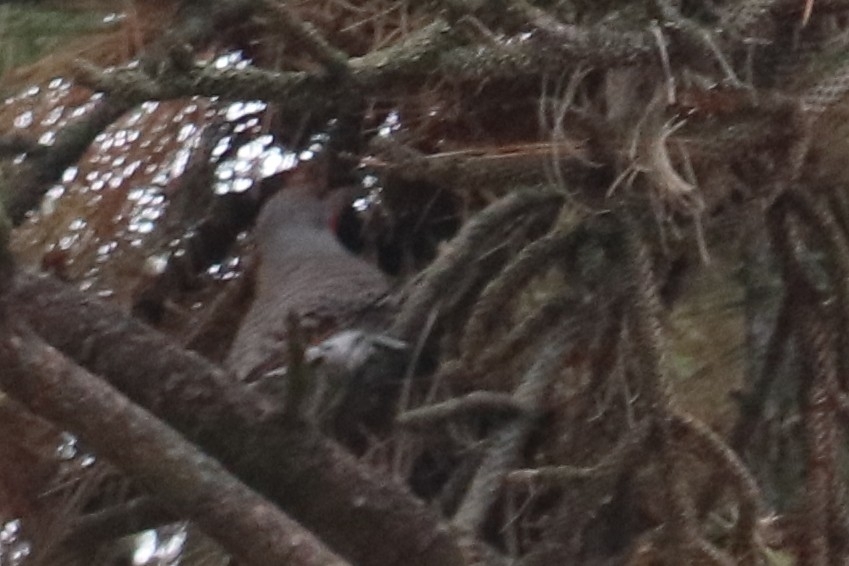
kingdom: Animalia
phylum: Chordata
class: Aves
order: Piciformes
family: Picidae
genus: Colaptes
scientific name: Colaptes auratus
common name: Northern flicker
